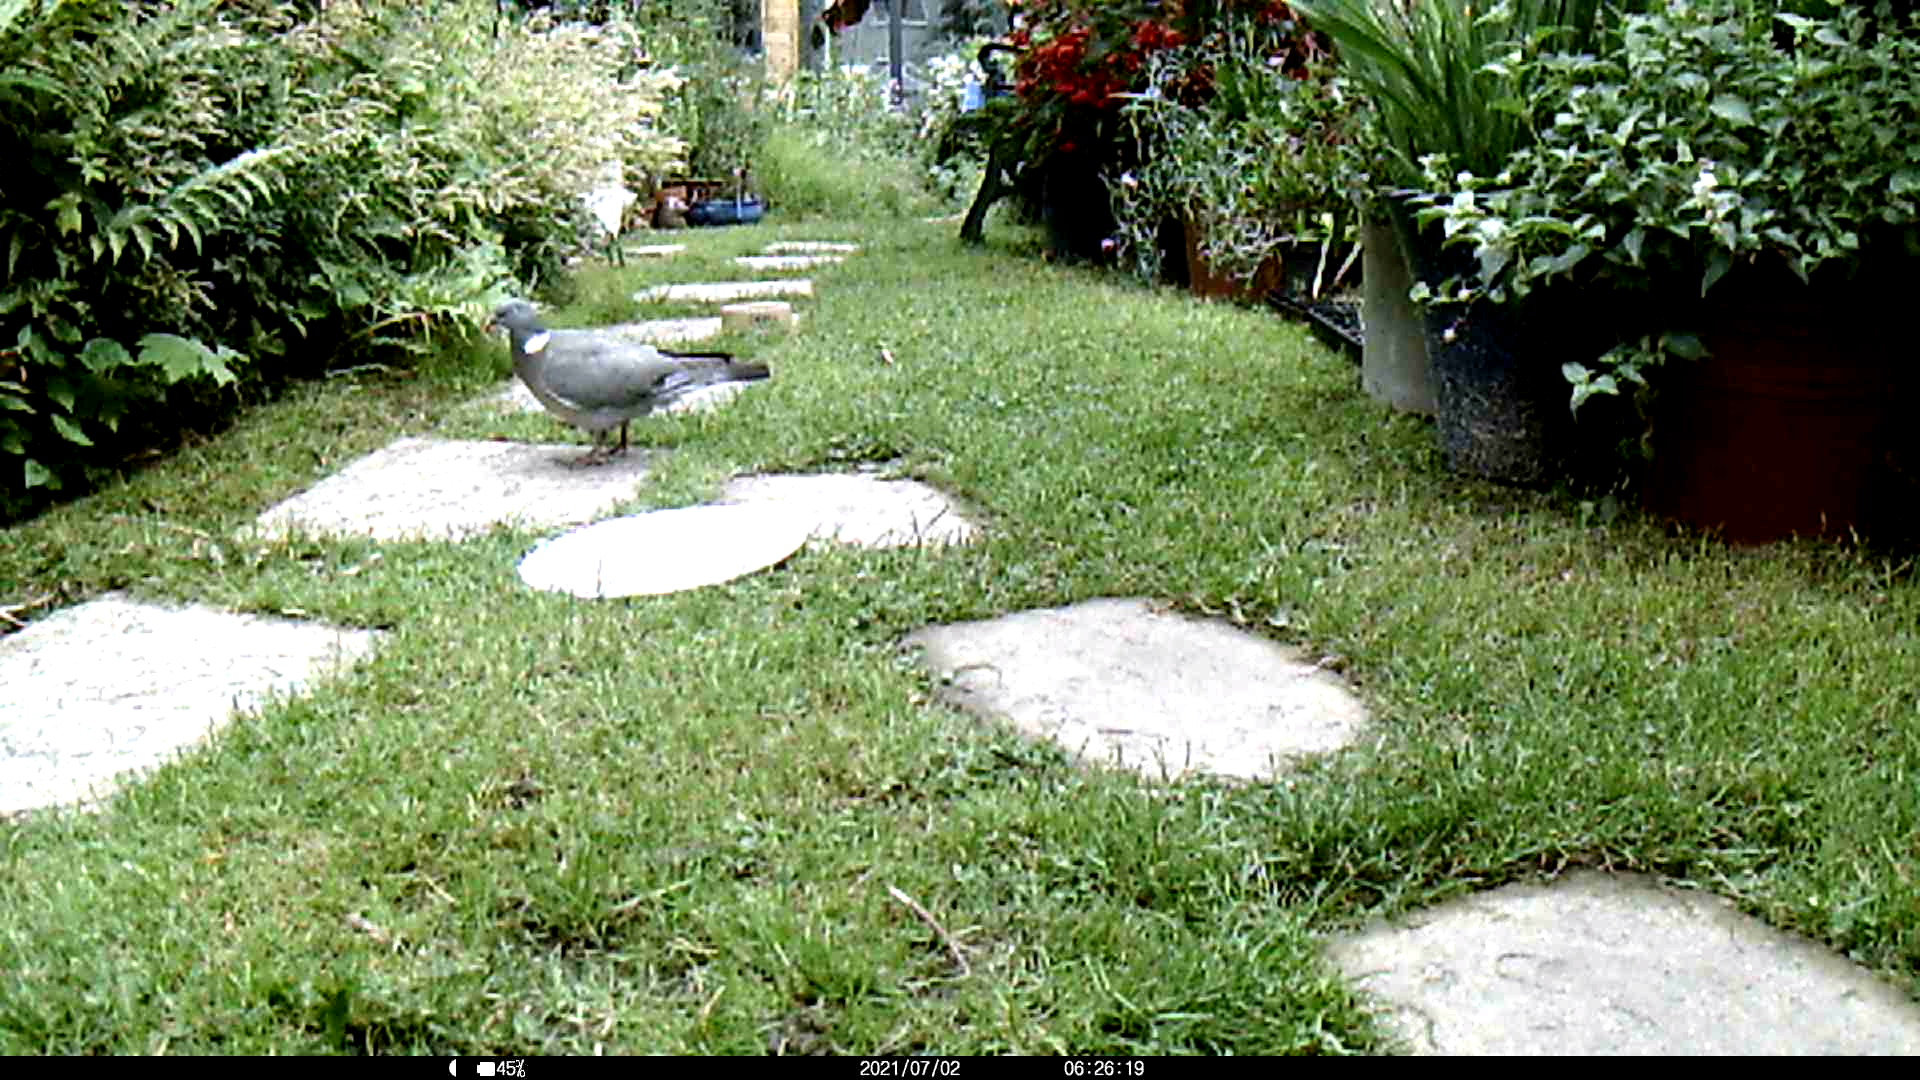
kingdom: Animalia
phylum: Chordata
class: Aves
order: Columbiformes
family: Columbidae
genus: Columba
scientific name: Columba palumbus
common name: Common wood pigeon
